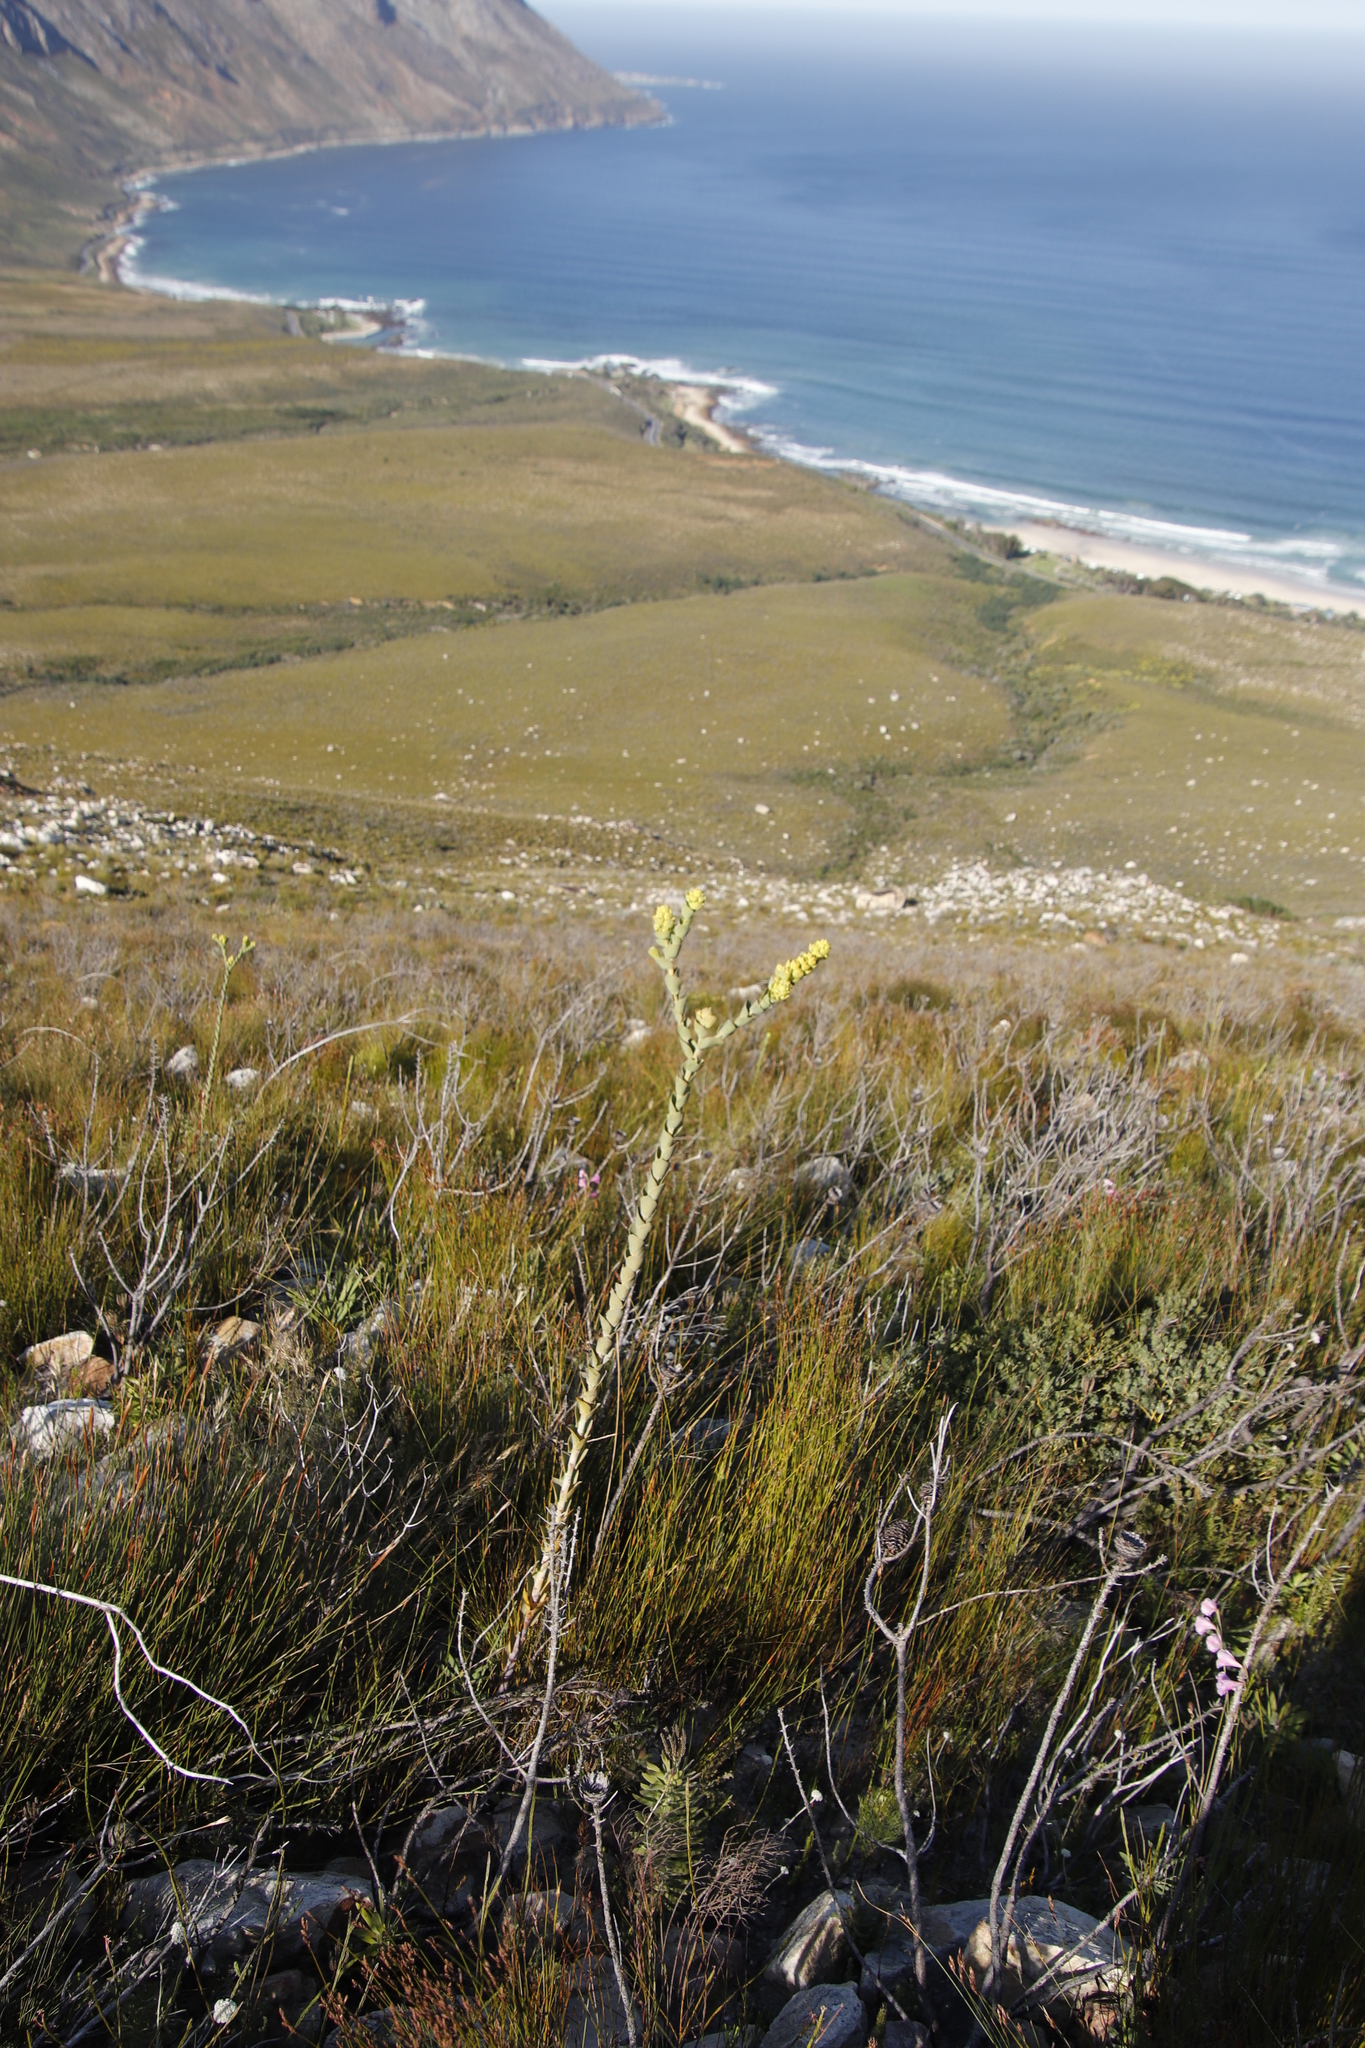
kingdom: Plantae
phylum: Tracheophyta
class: Magnoliopsida
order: Santalales
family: Thesiaceae
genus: Thesium
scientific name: Thesium euphorbioides
